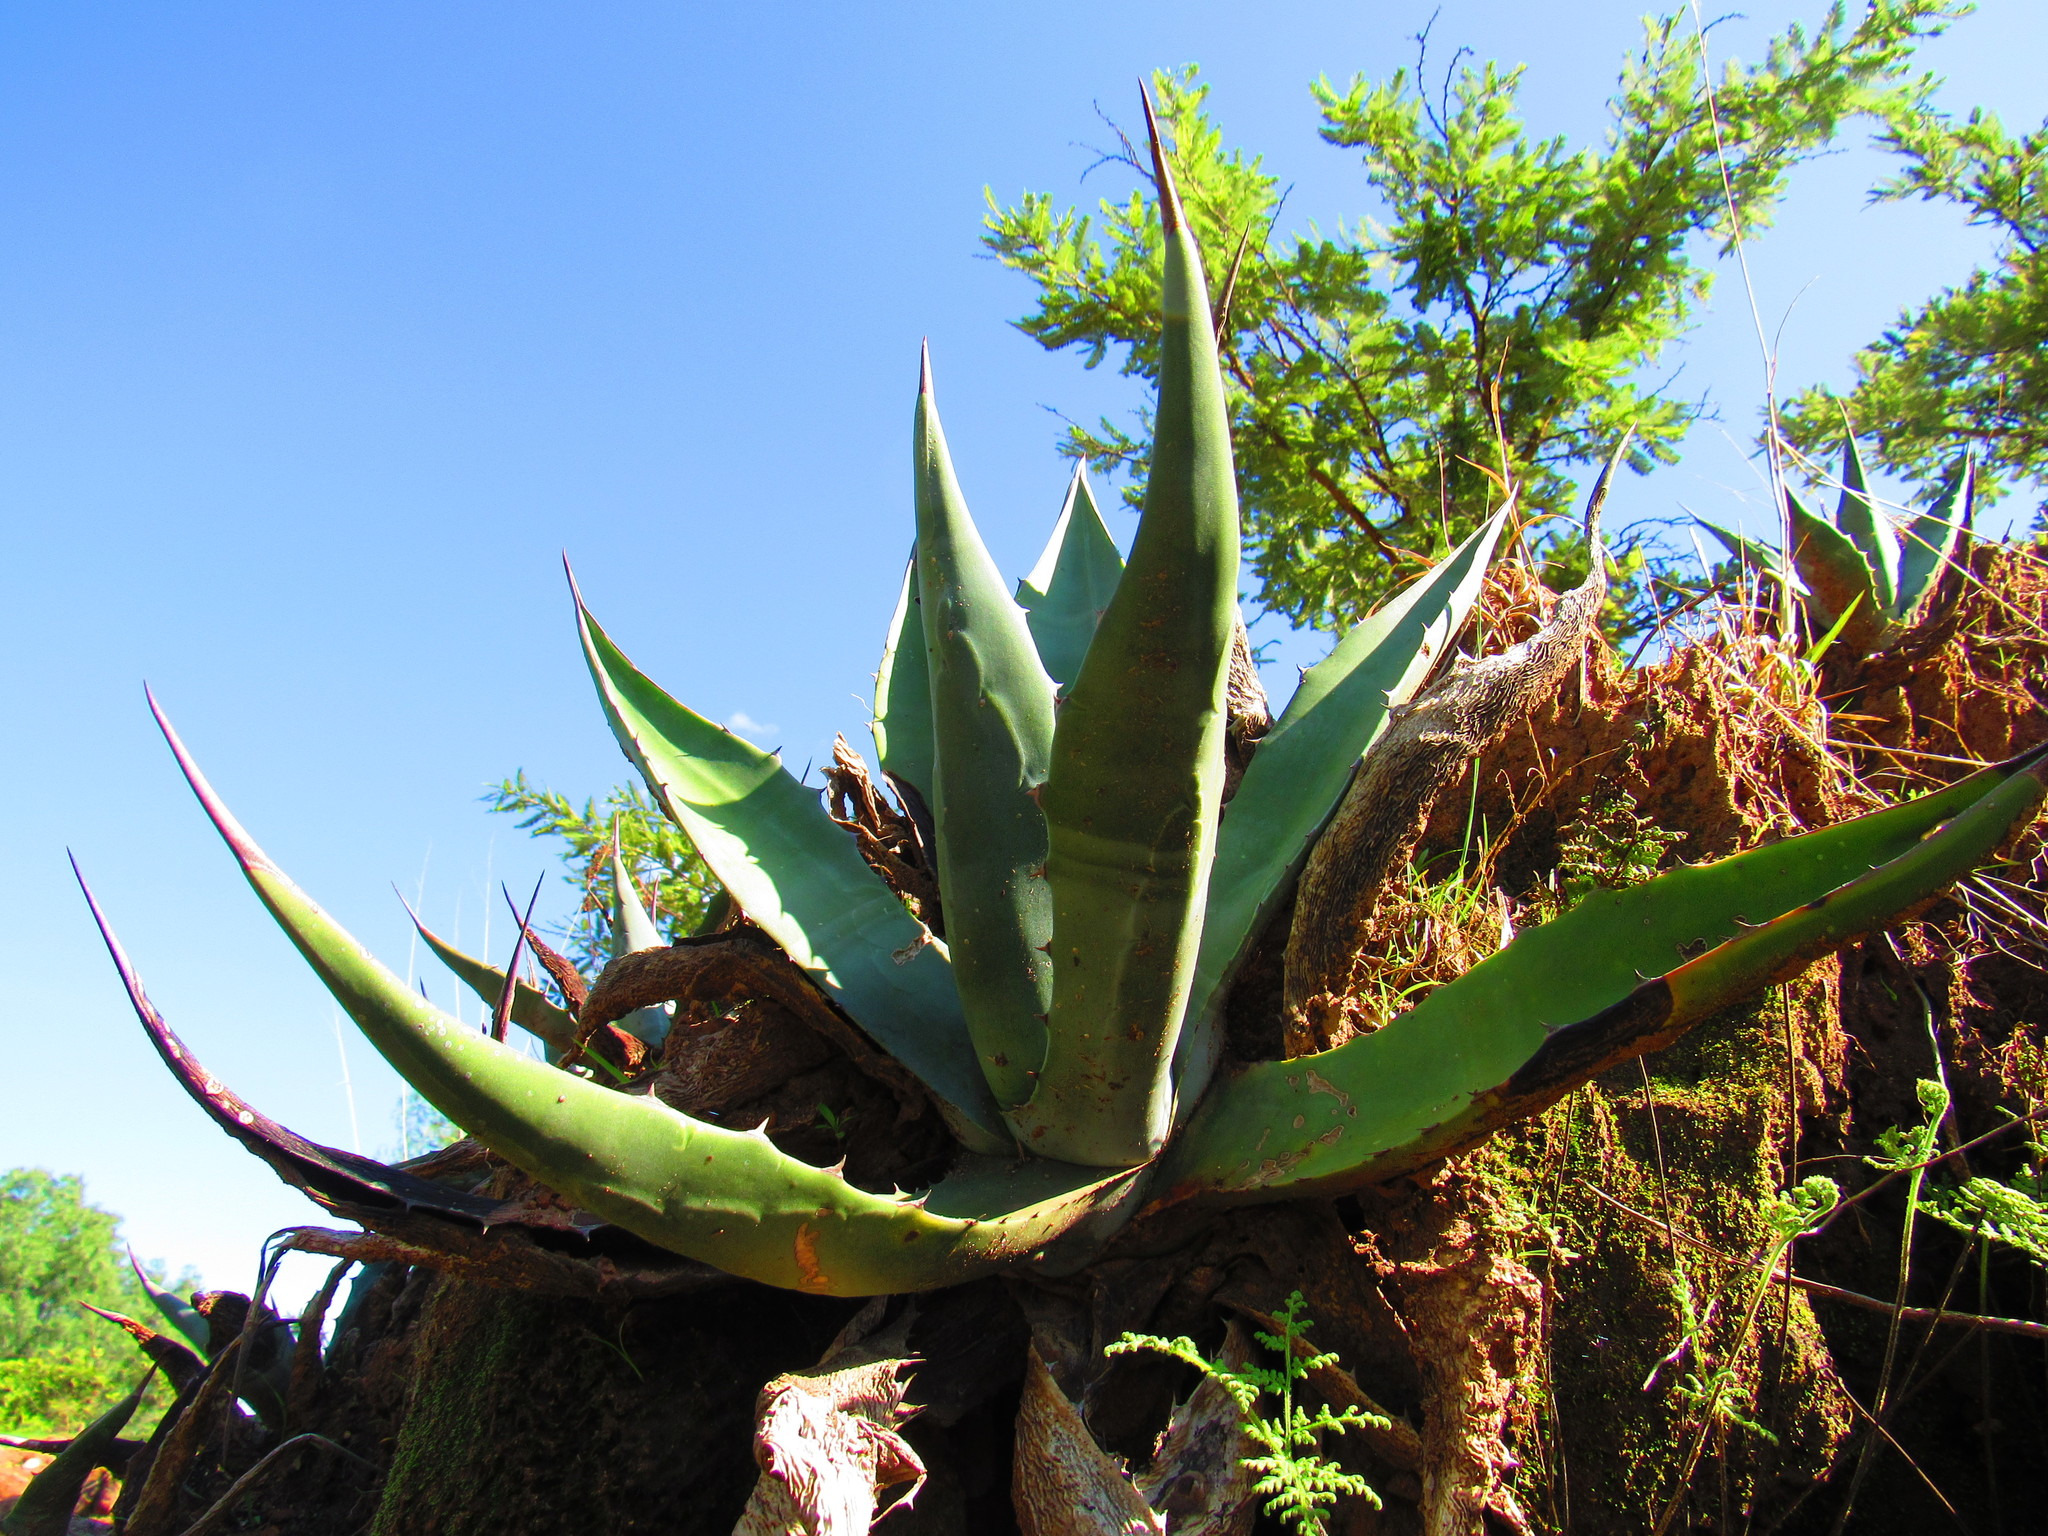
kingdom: Plantae
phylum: Tracheophyta
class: Liliopsida
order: Asparagales
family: Asparagaceae
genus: Agave
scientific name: Agave salmiana
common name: Pulque agave
